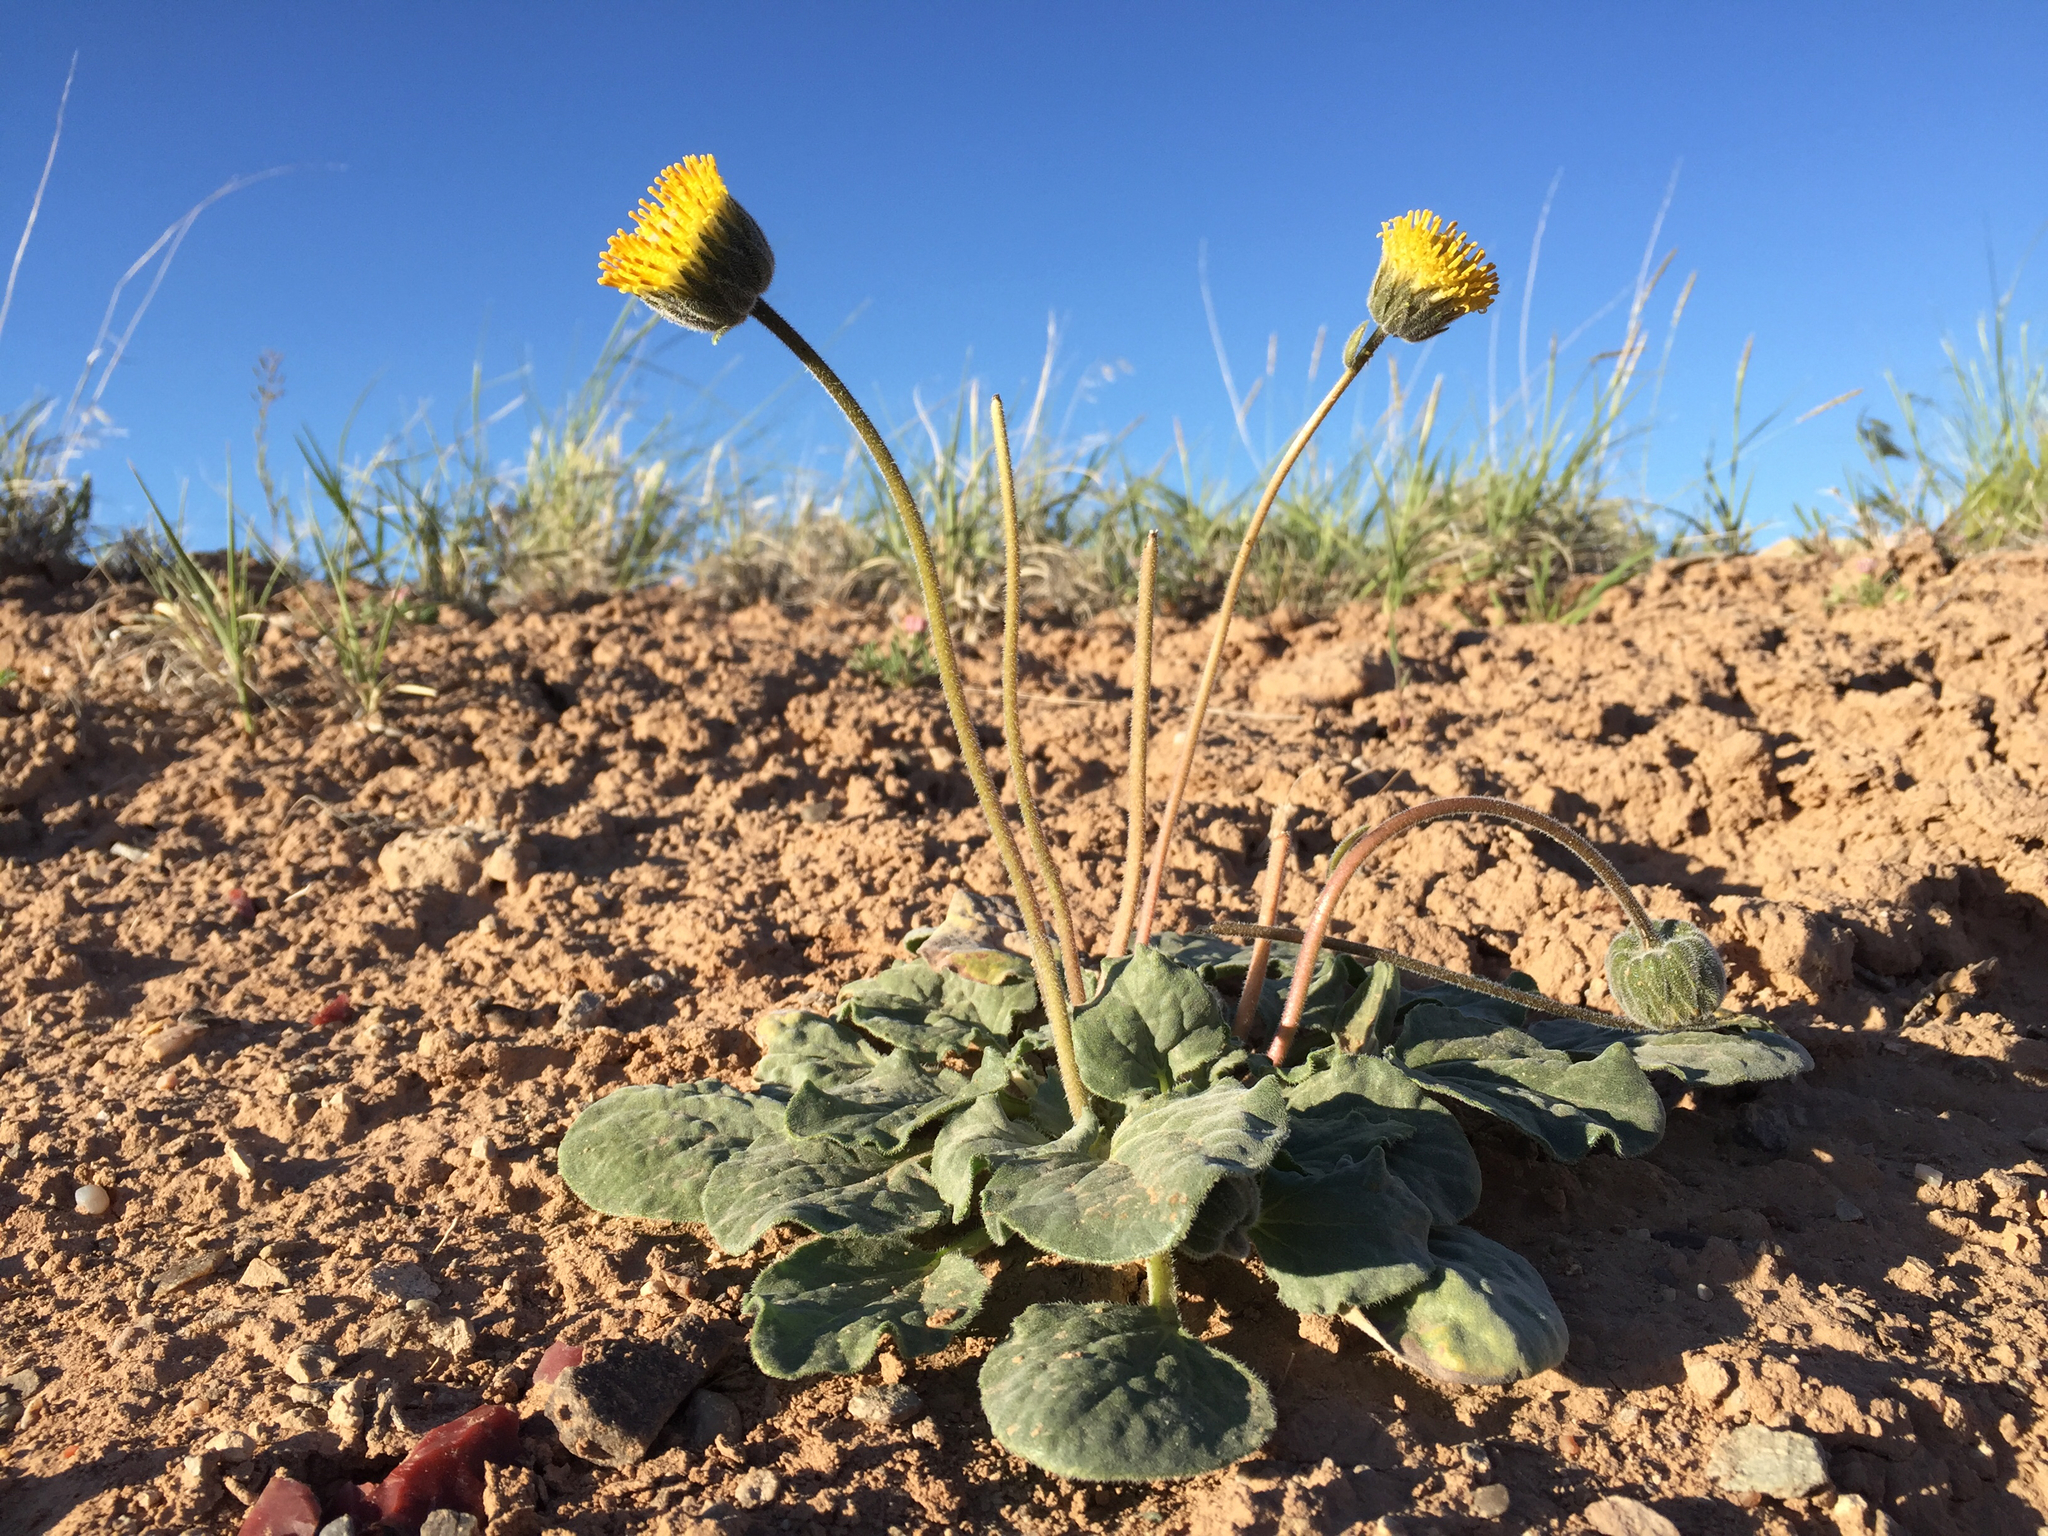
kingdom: Plantae
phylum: Tracheophyta
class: Magnoliopsida
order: Asterales
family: Asteraceae
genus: Encelia
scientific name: Encelia nutans
